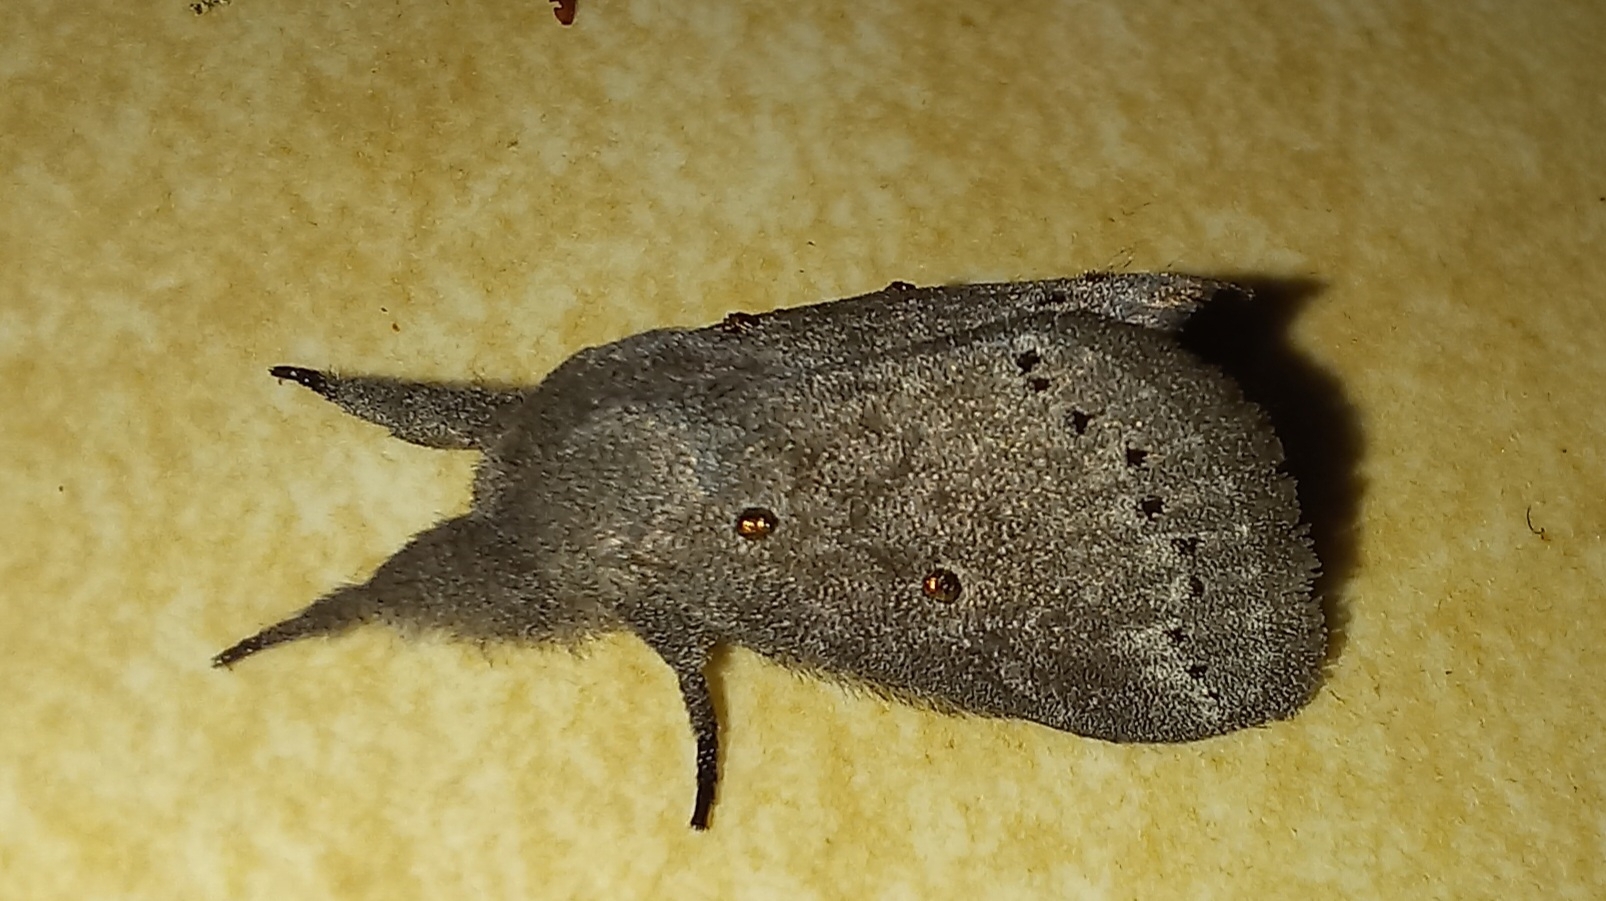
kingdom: Animalia
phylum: Arthropoda
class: Insecta
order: Lepidoptera
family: Lasiocampidae
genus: Haplopacha
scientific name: Haplopacha cinerea
